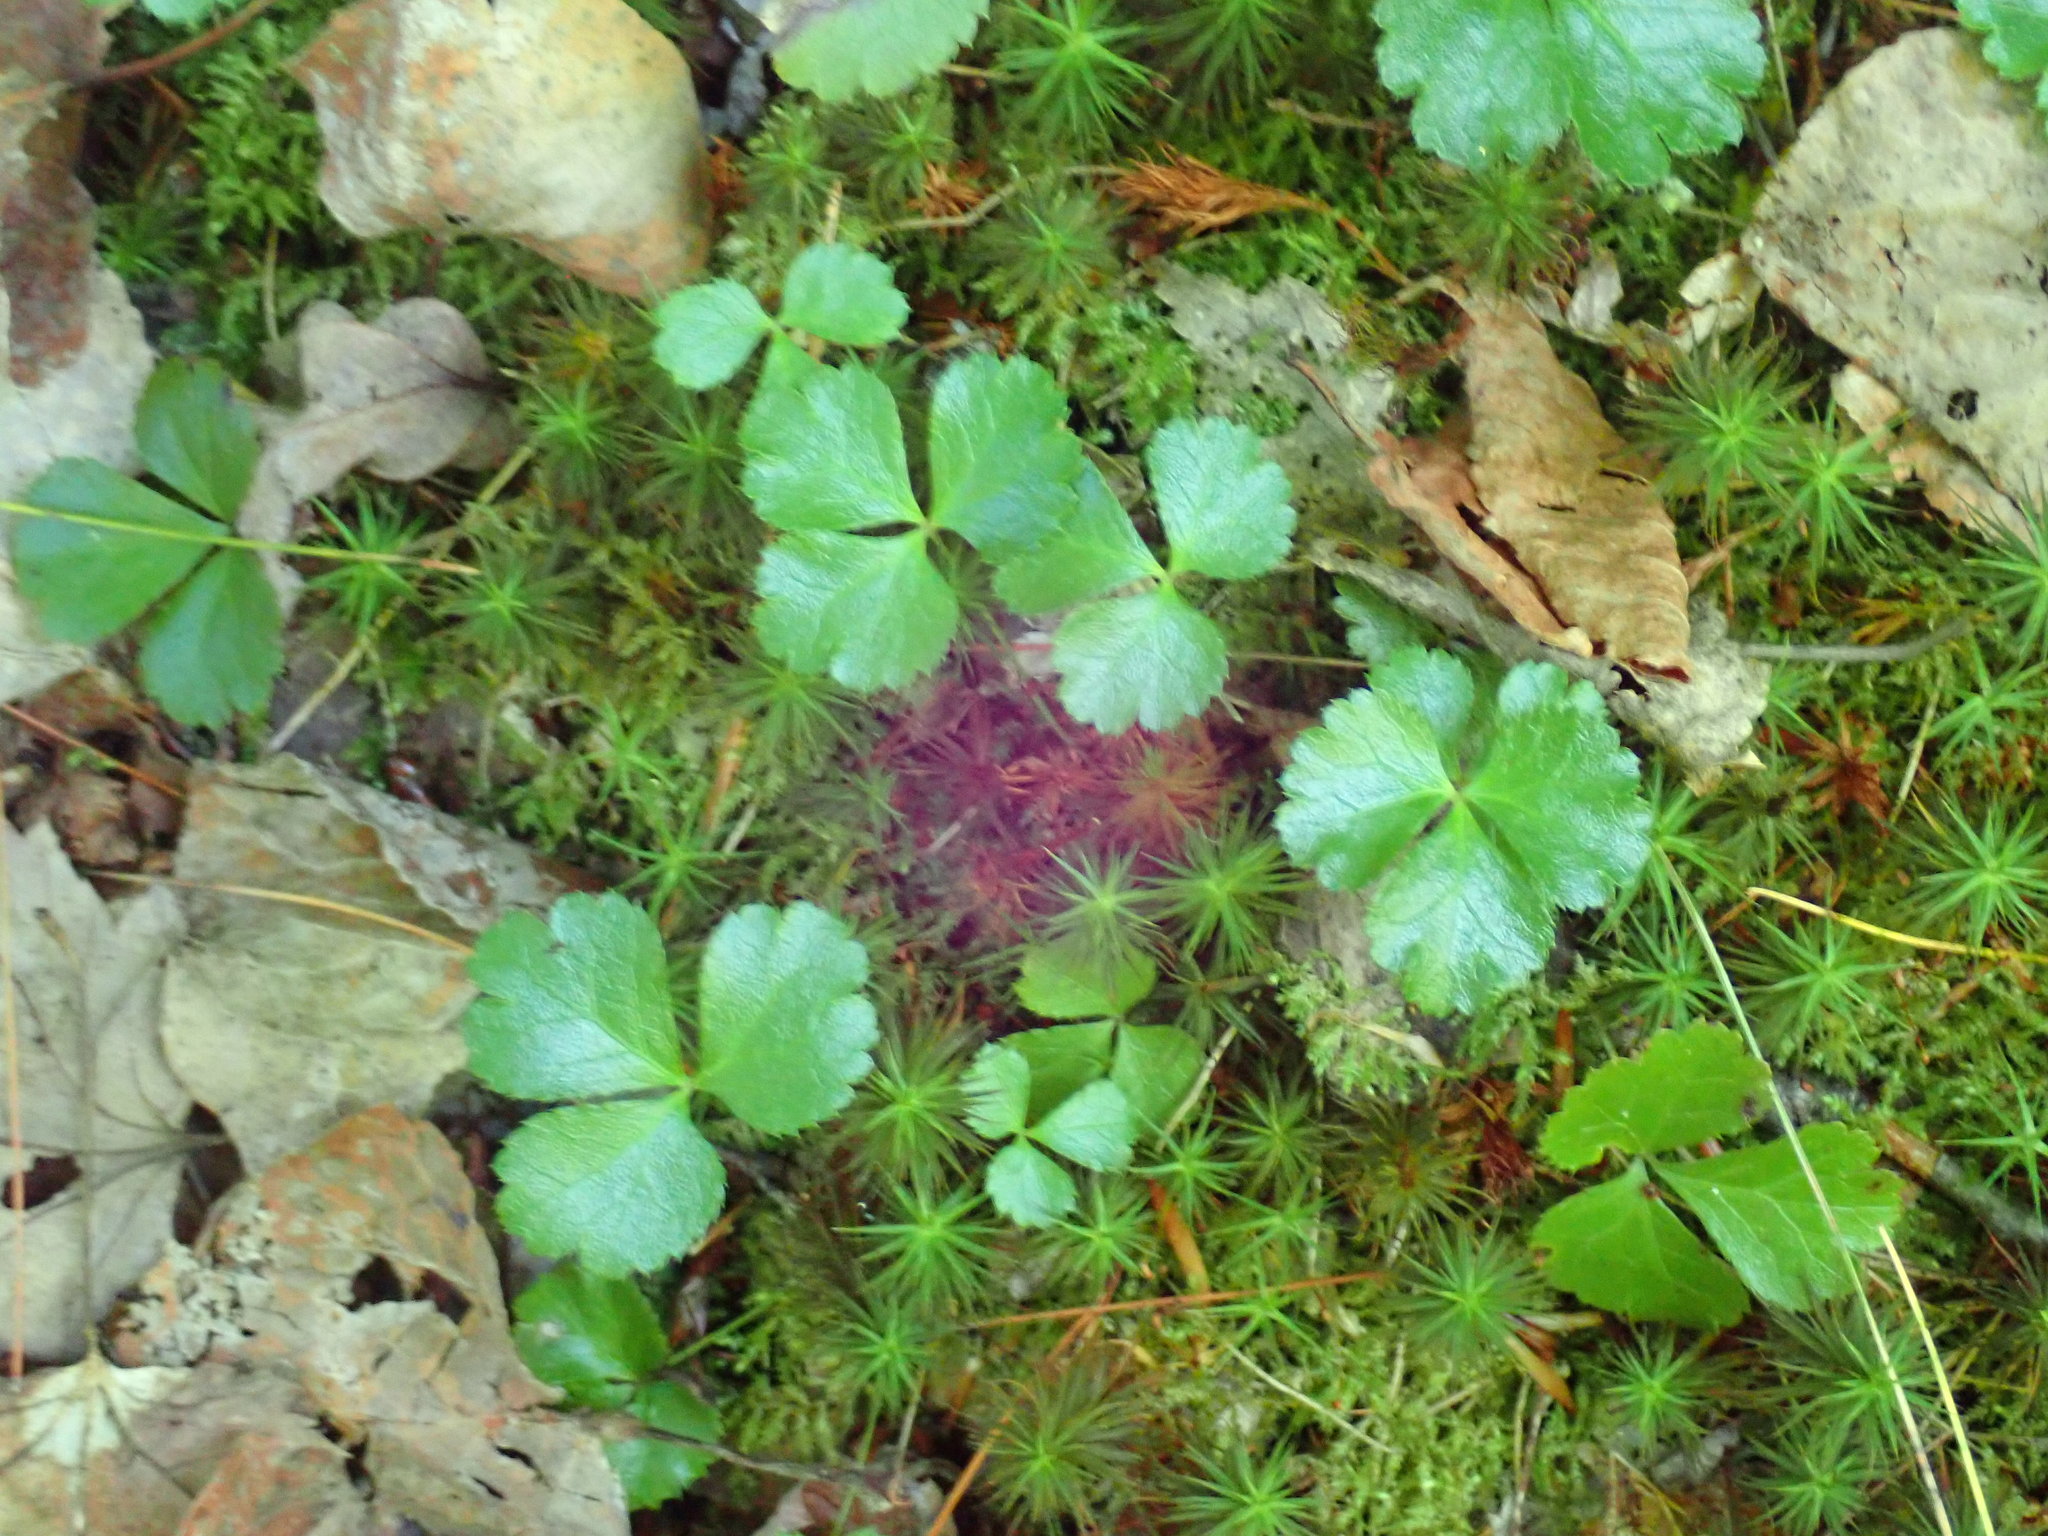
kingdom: Plantae
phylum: Tracheophyta
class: Magnoliopsida
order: Ranunculales
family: Ranunculaceae
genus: Coptis
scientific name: Coptis trifolia
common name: Canker-root
